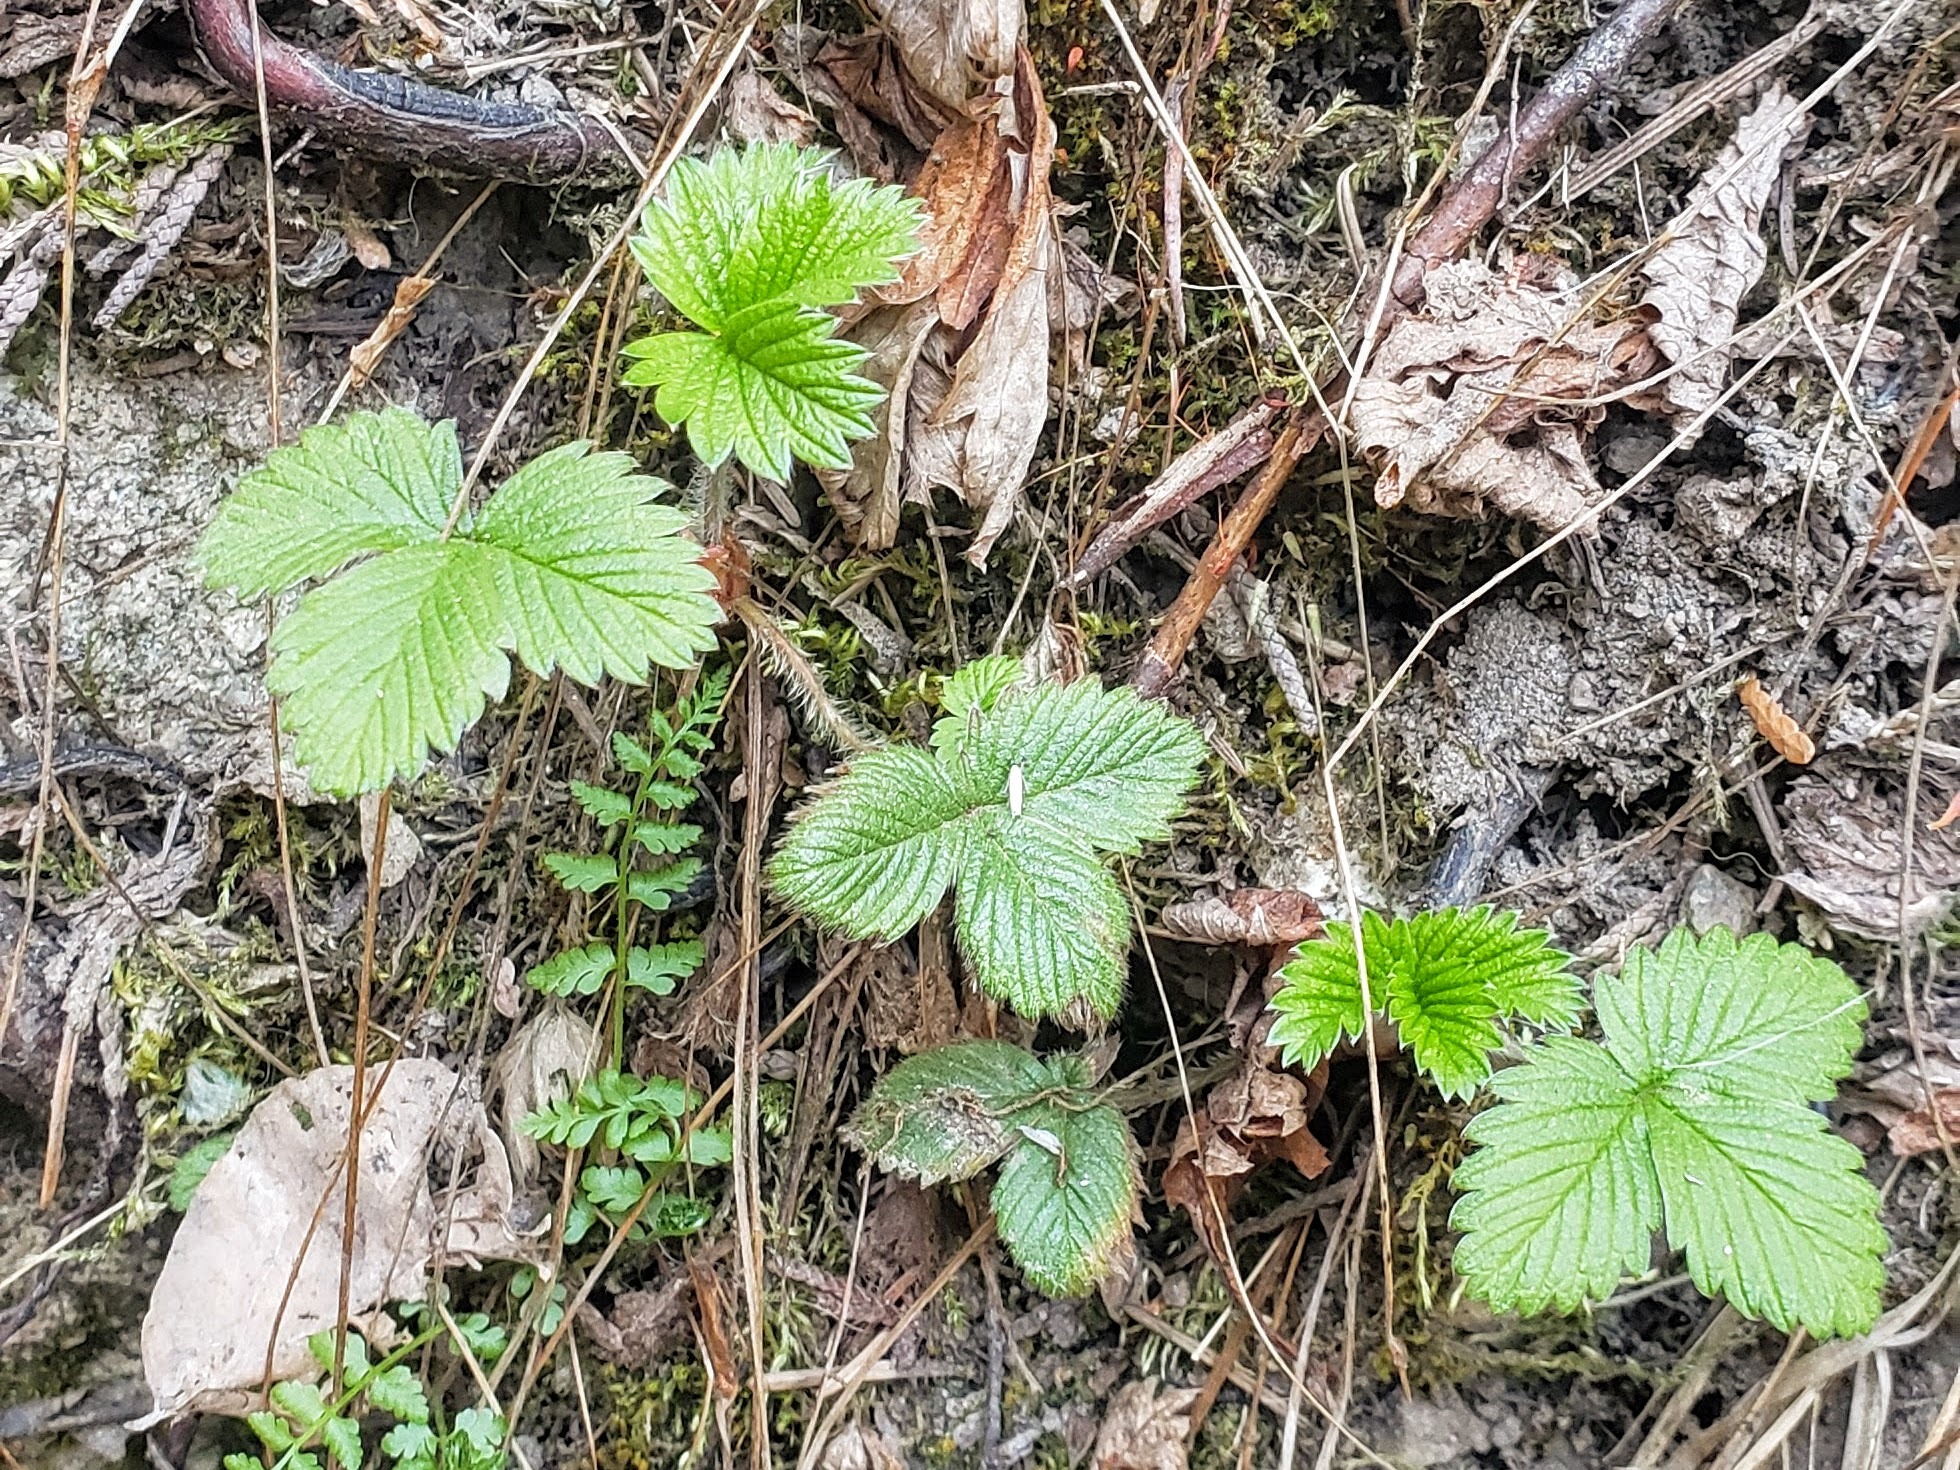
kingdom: Plantae
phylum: Tracheophyta
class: Magnoliopsida
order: Rosales
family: Rosaceae
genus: Fragaria
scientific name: Fragaria vesca
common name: Wild strawberry
